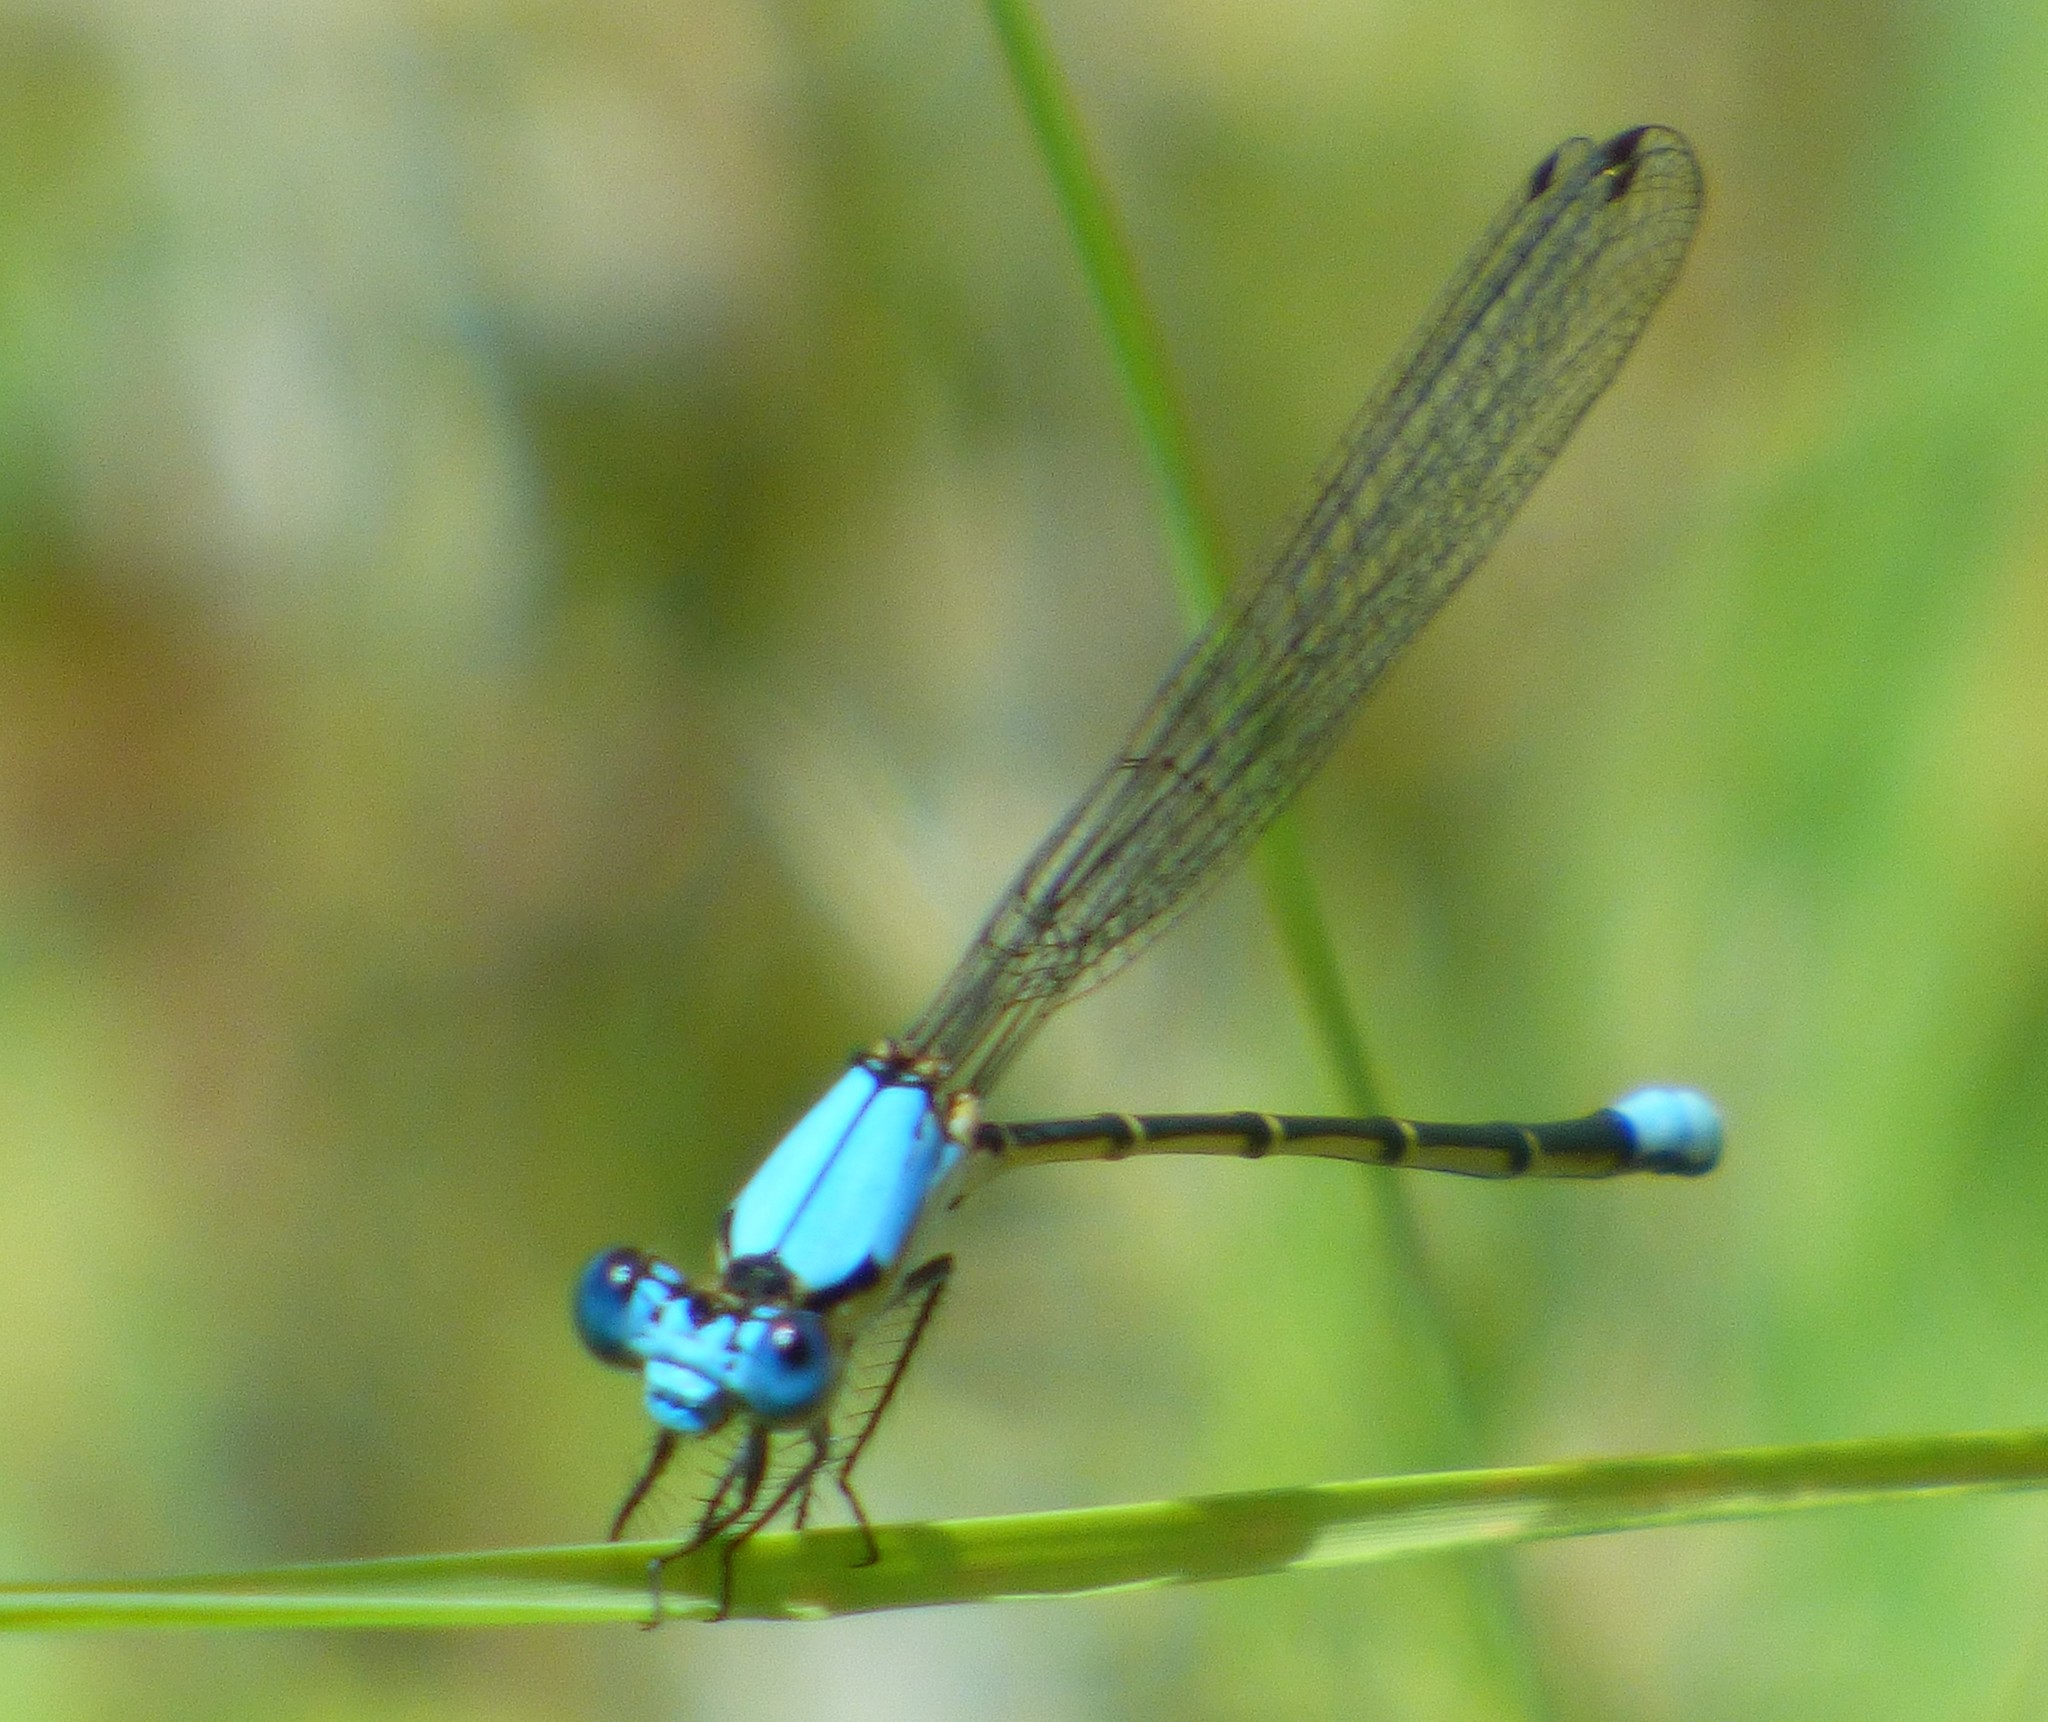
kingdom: Animalia
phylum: Arthropoda
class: Insecta
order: Odonata
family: Coenagrionidae
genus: Argia
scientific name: Argia apicalis
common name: Blue-fronted dancer
